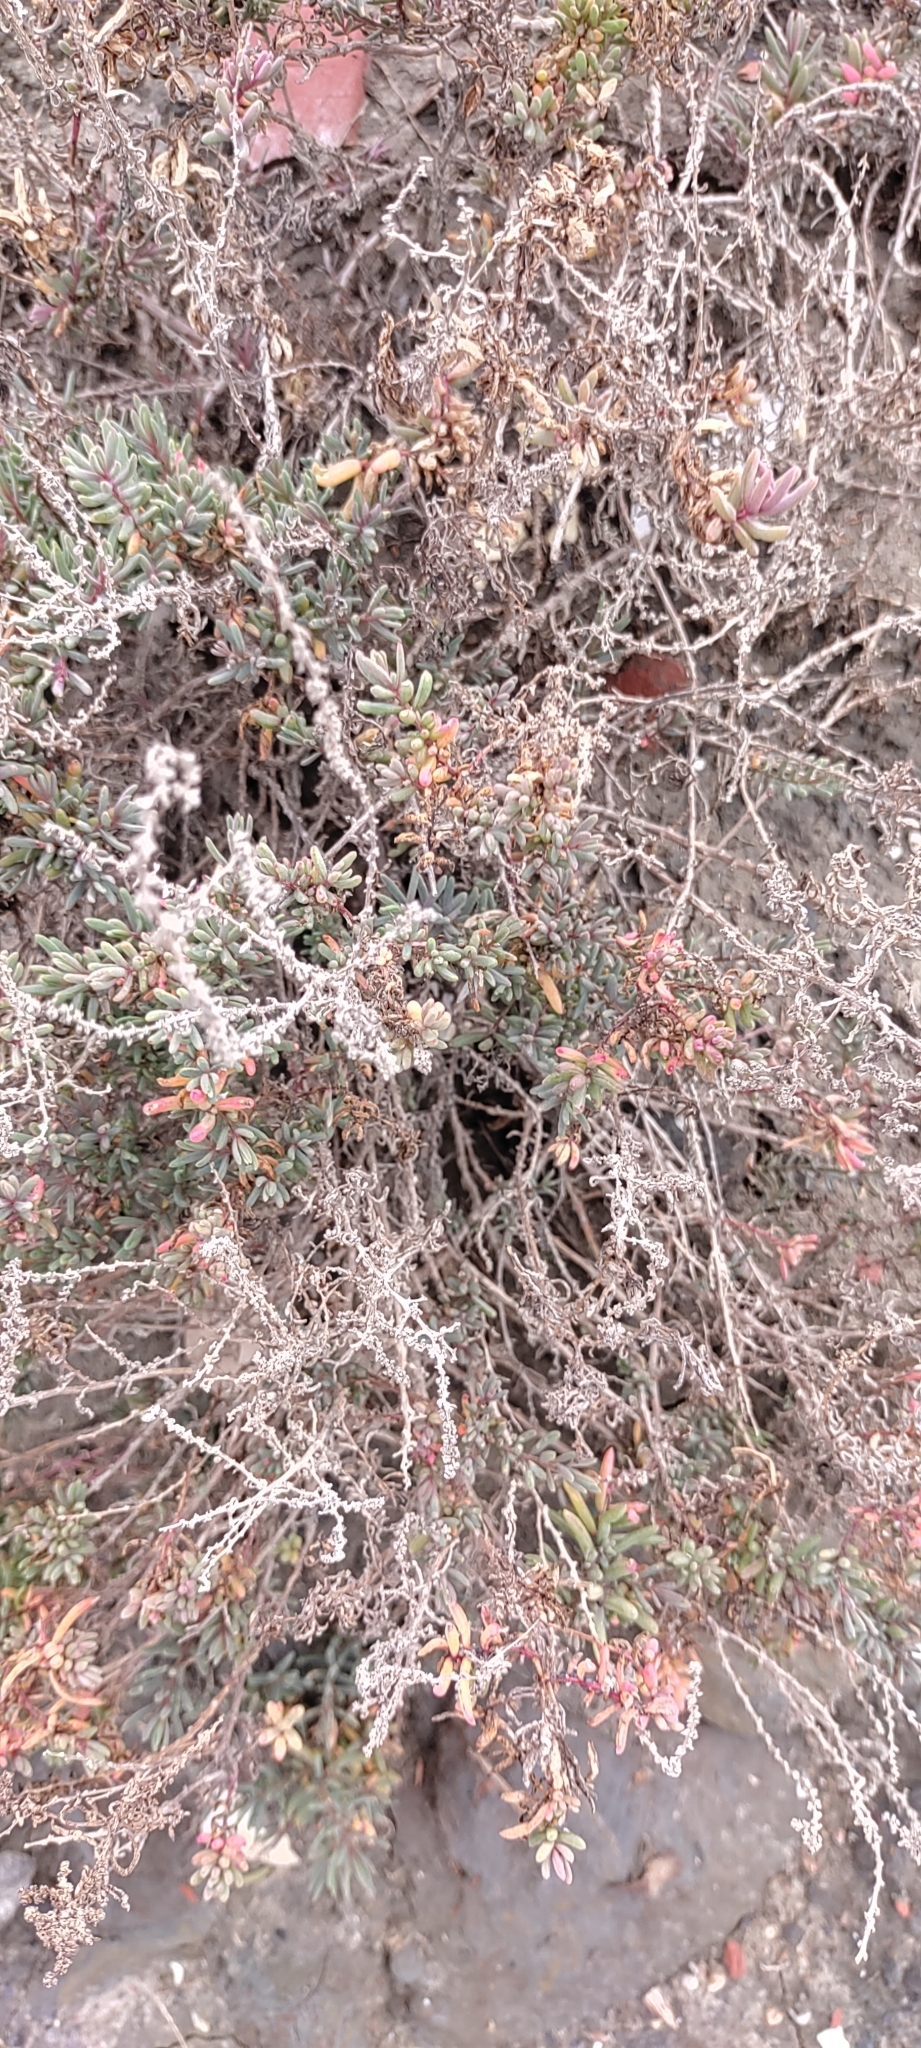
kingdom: Plantae
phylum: Tracheophyta
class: Magnoliopsida
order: Caryophyllales
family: Amaranthaceae
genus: Suaeda
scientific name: Suaeda maritima
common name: Annual sea-blite
